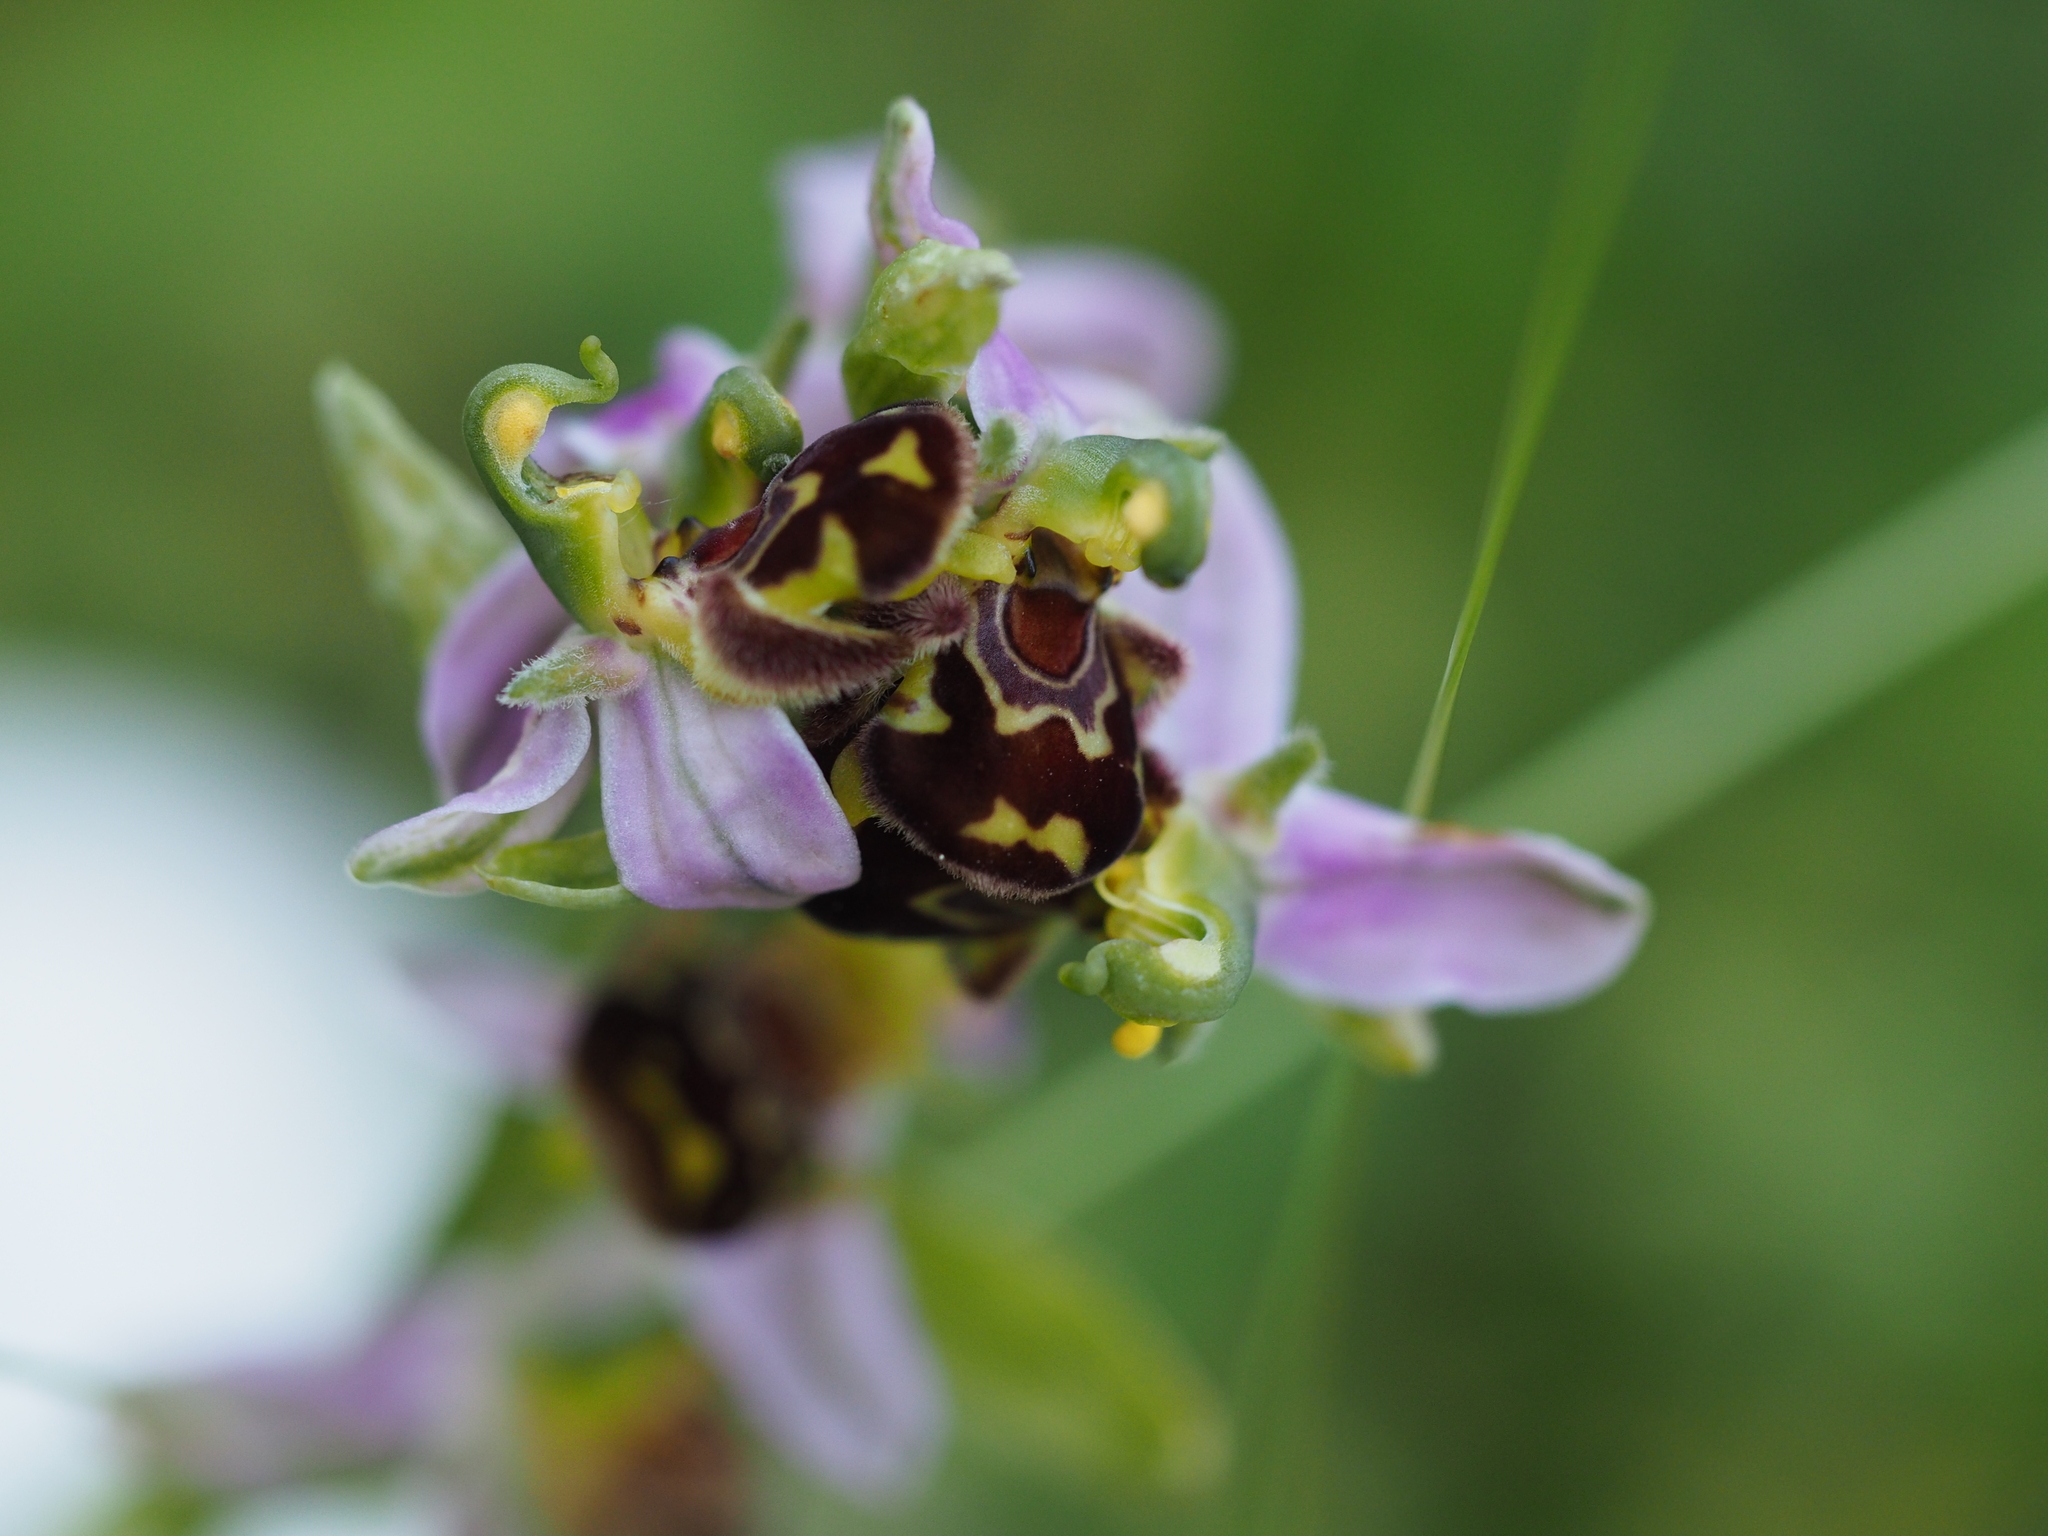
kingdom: Plantae
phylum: Tracheophyta
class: Liliopsida
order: Asparagales
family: Orchidaceae
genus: Ophrys
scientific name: Ophrys apifera
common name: Bee orchid
